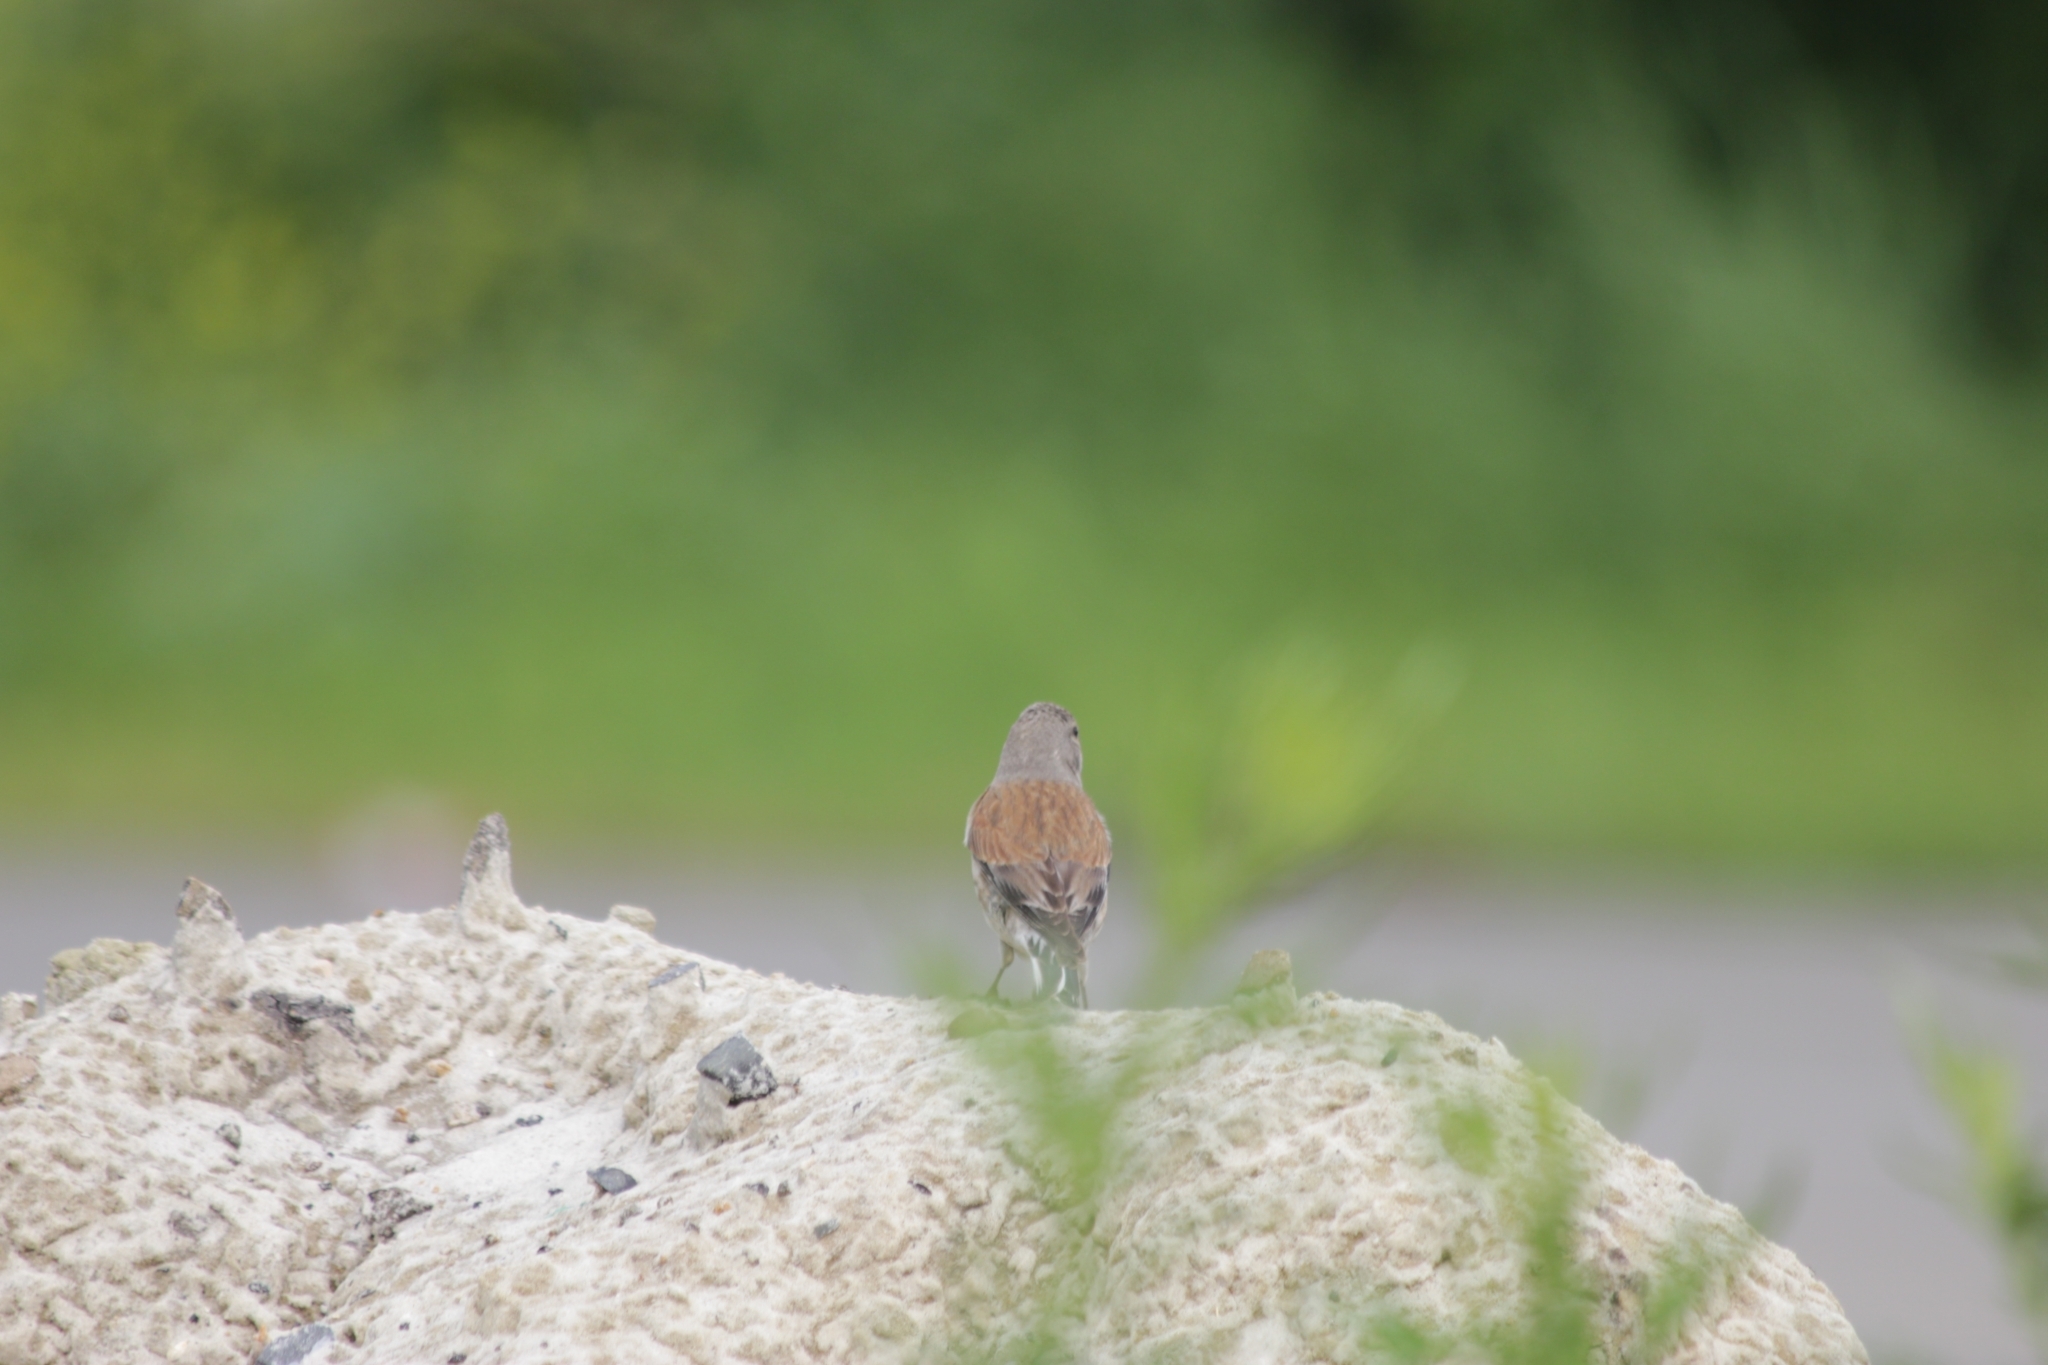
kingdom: Animalia
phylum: Chordata
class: Aves
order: Passeriformes
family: Fringillidae
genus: Linaria
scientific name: Linaria cannabina
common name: Common linnet
